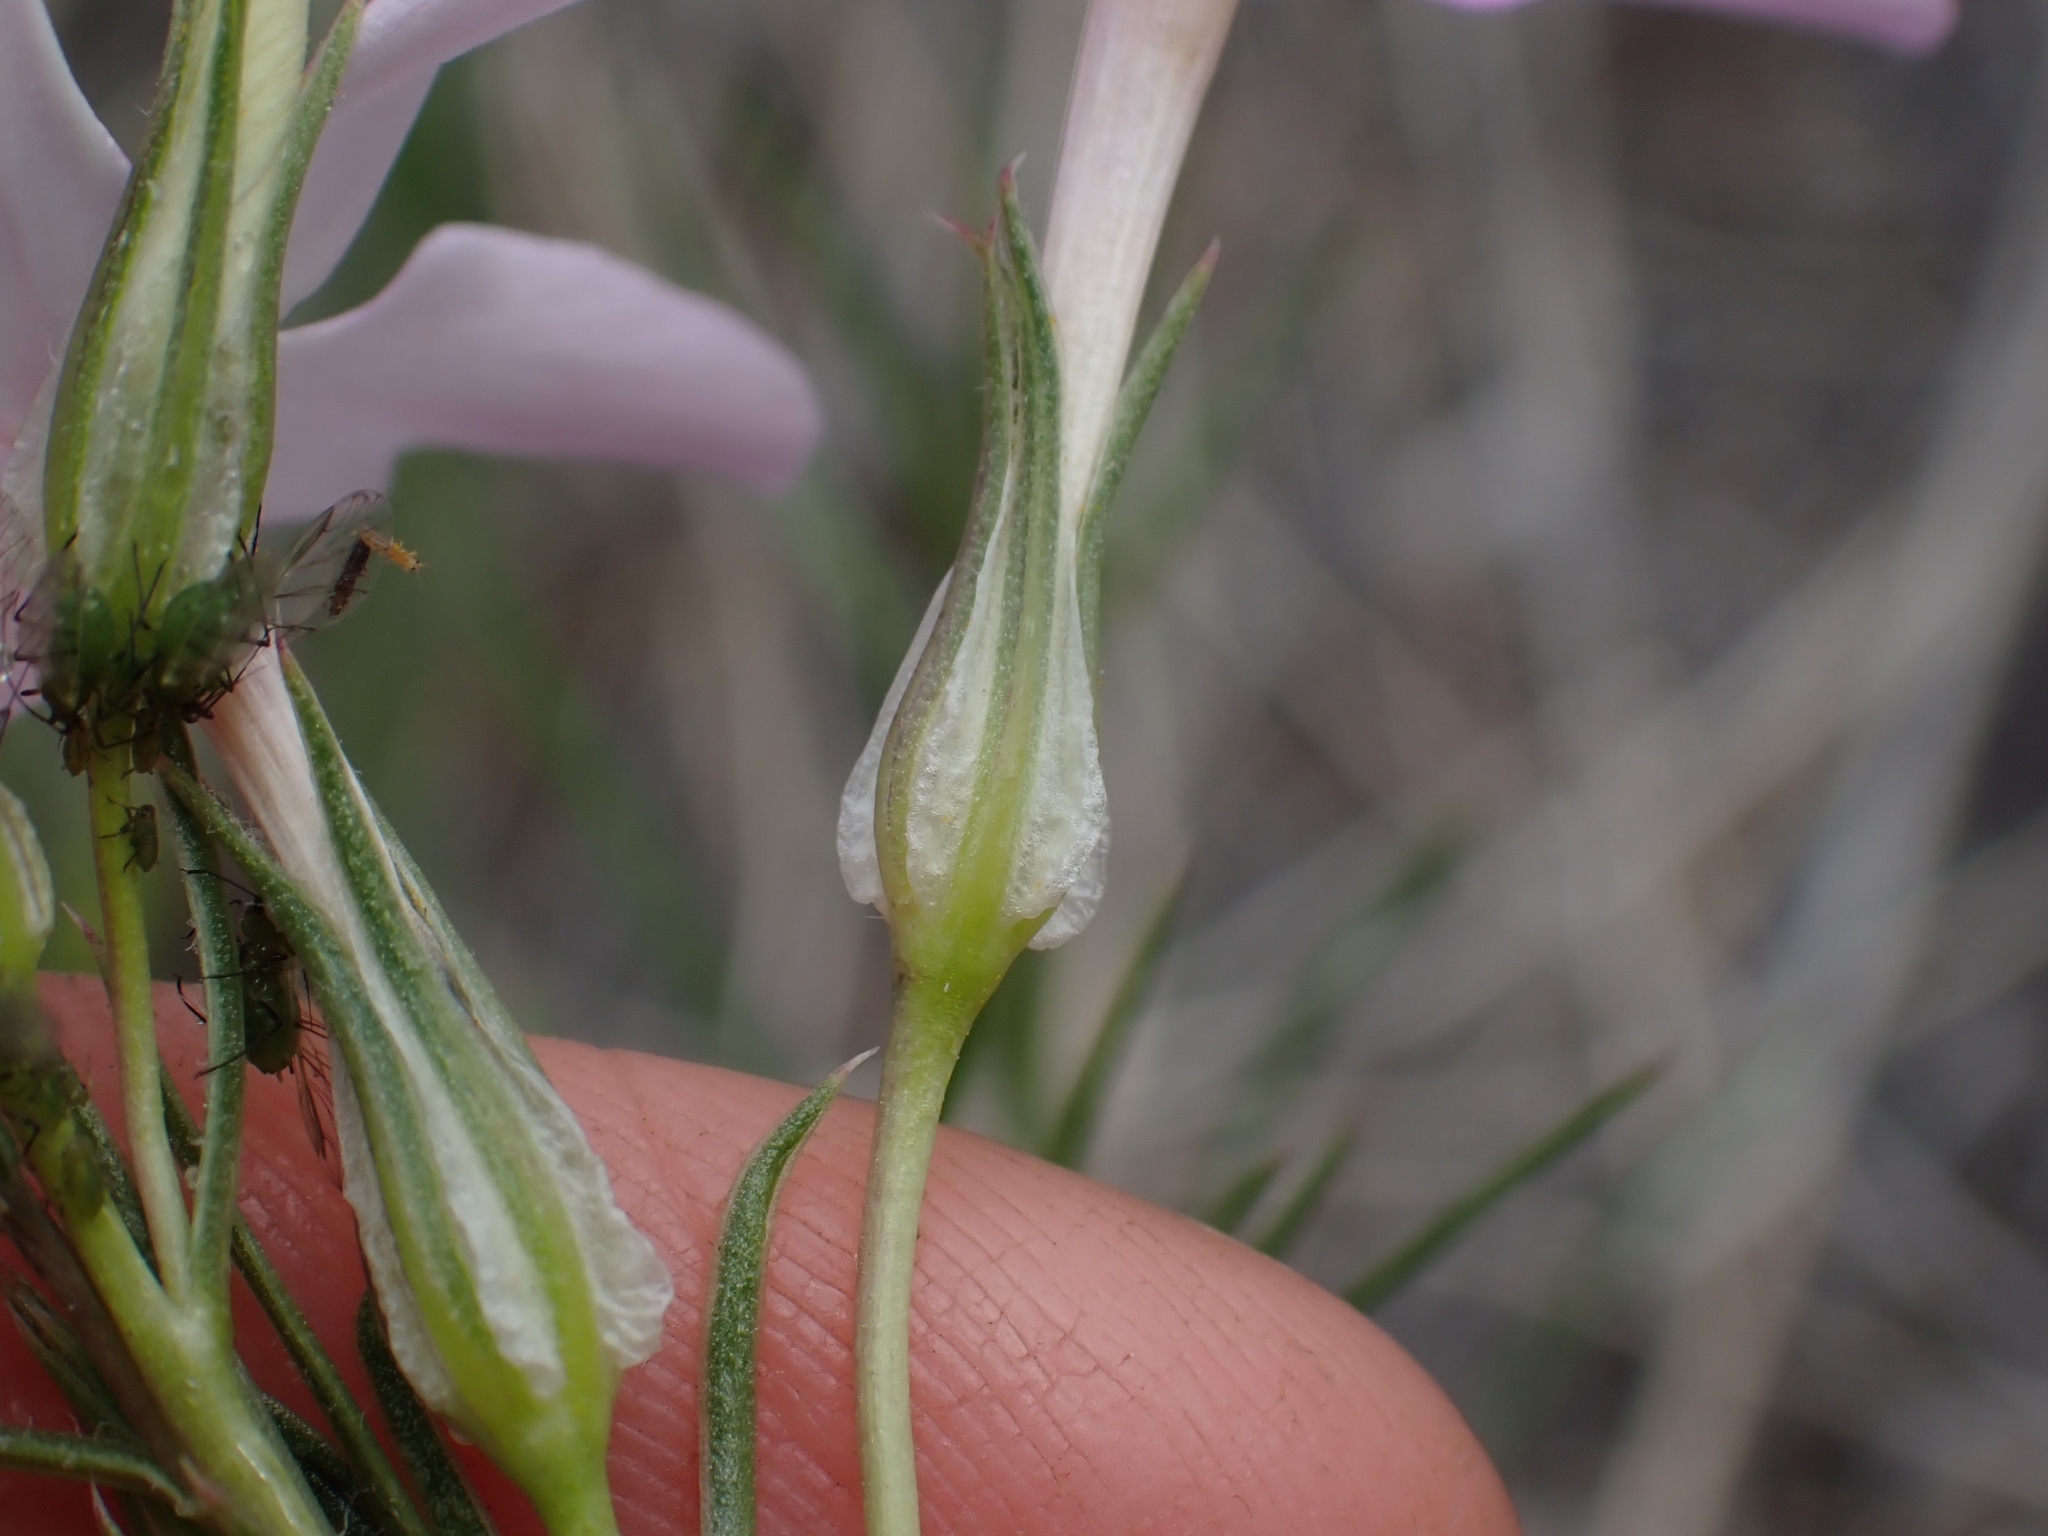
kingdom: Plantae
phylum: Tracheophyta
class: Magnoliopsida
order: Ericales
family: Polemoniaceae
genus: Phlox
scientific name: Phlox longifolia
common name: Longleaf phlox
